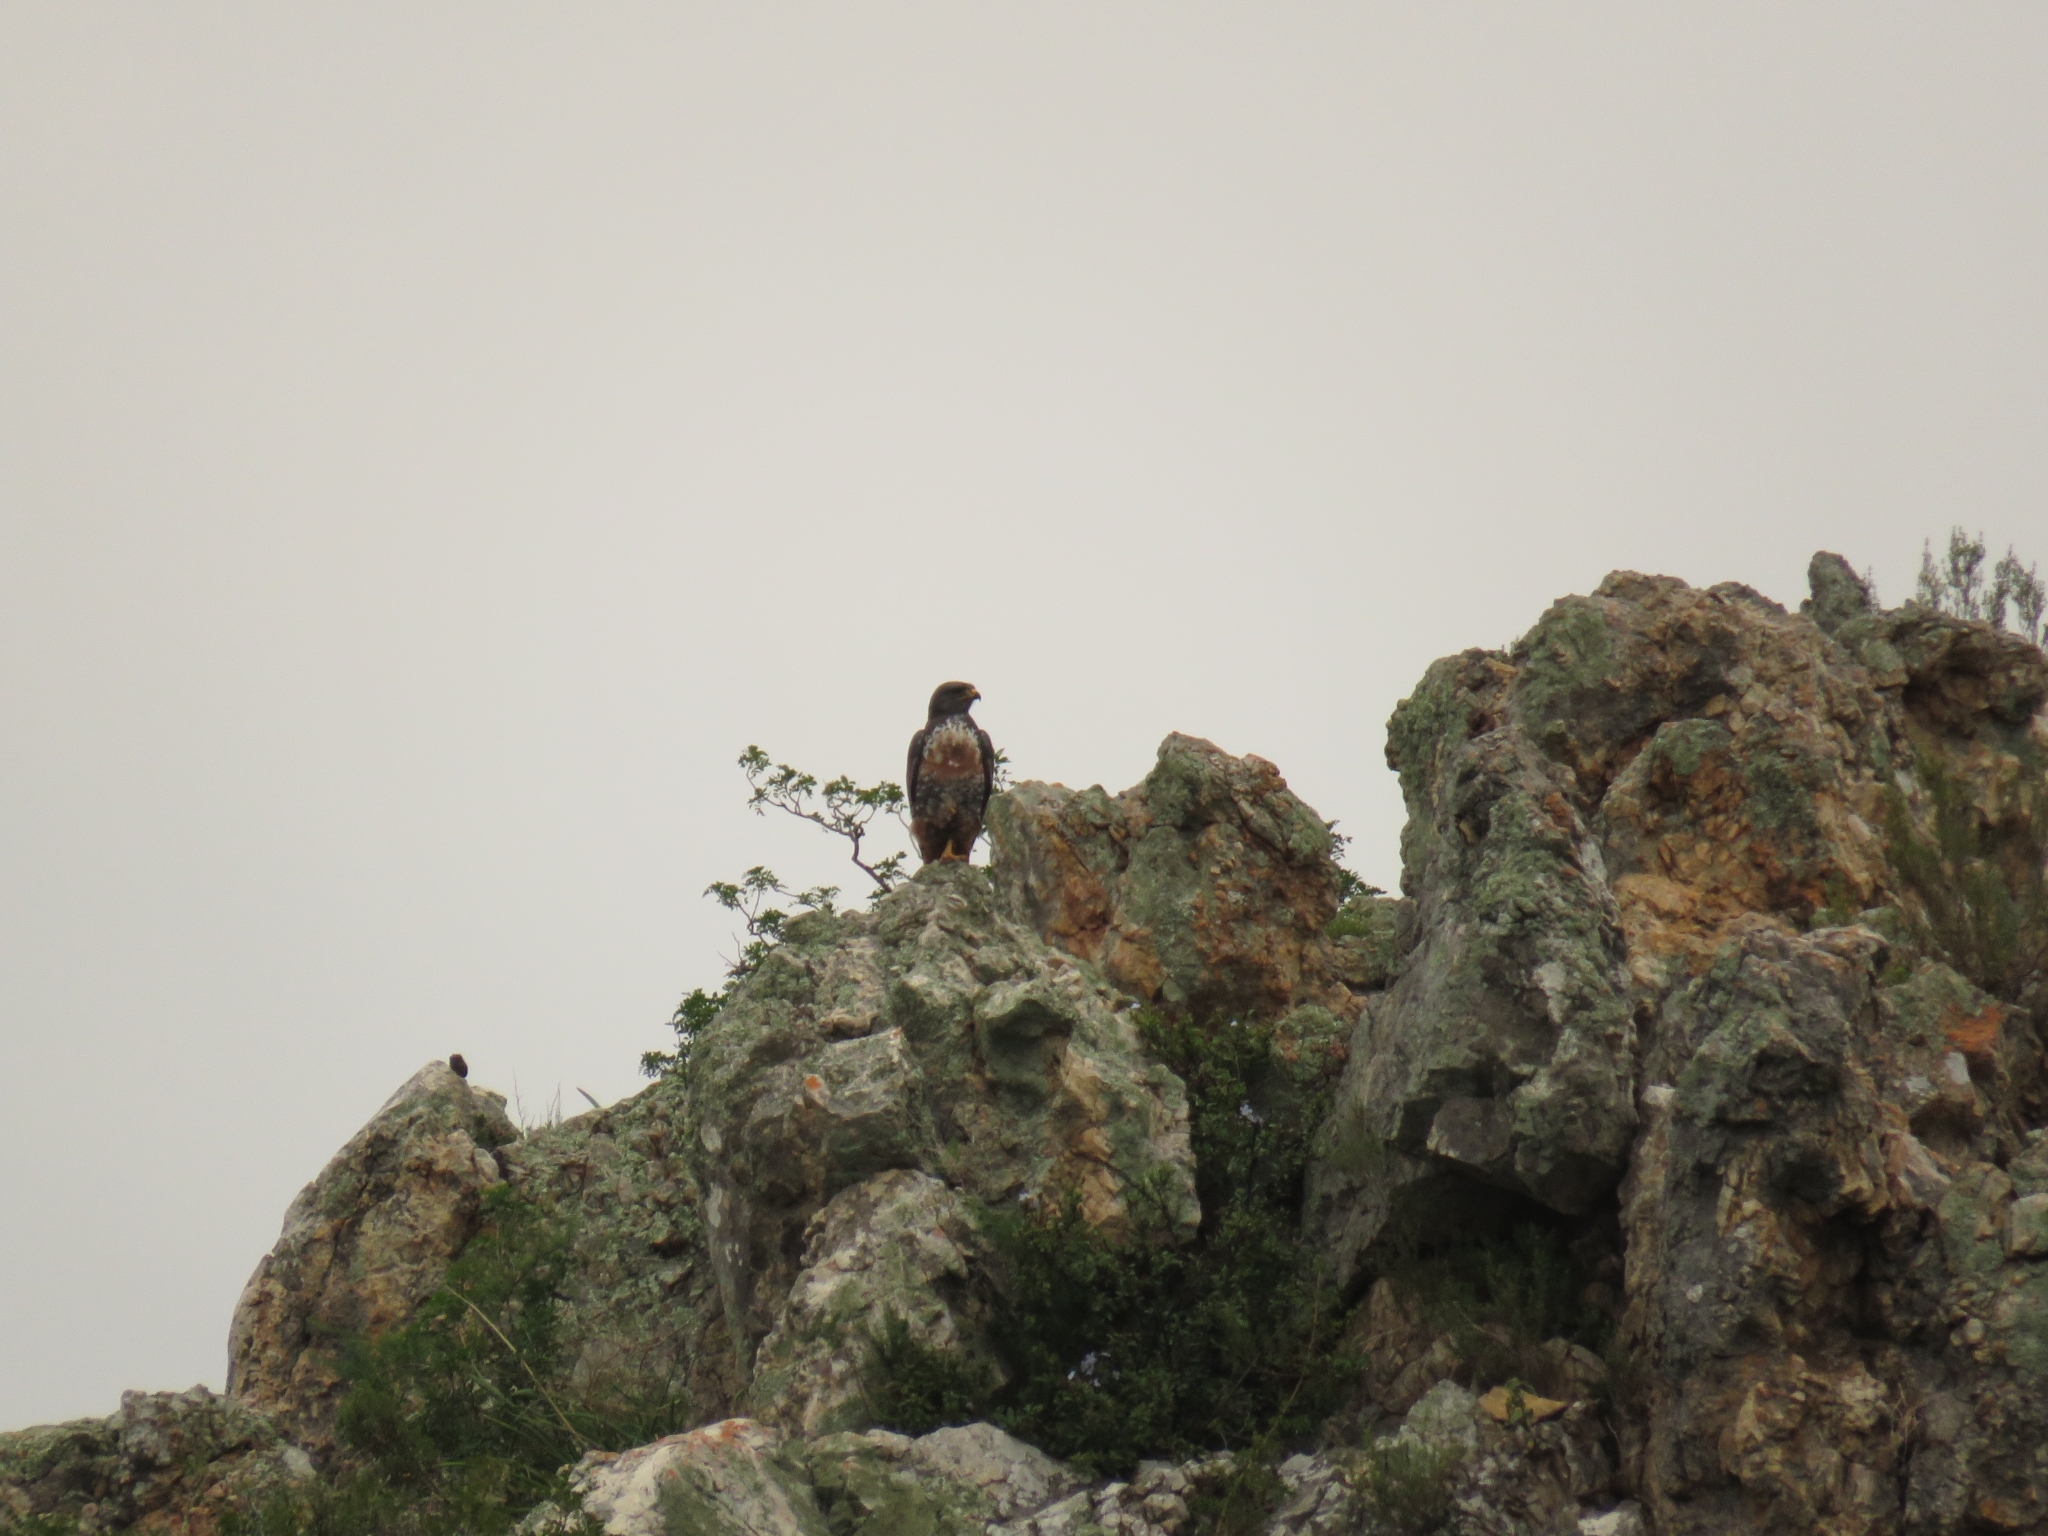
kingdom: Animalia
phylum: Chordata
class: Aves
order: Accipitriformes
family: Accipitridae
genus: Buteo
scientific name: Buteo rufofuscus
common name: Jackal buzzard
